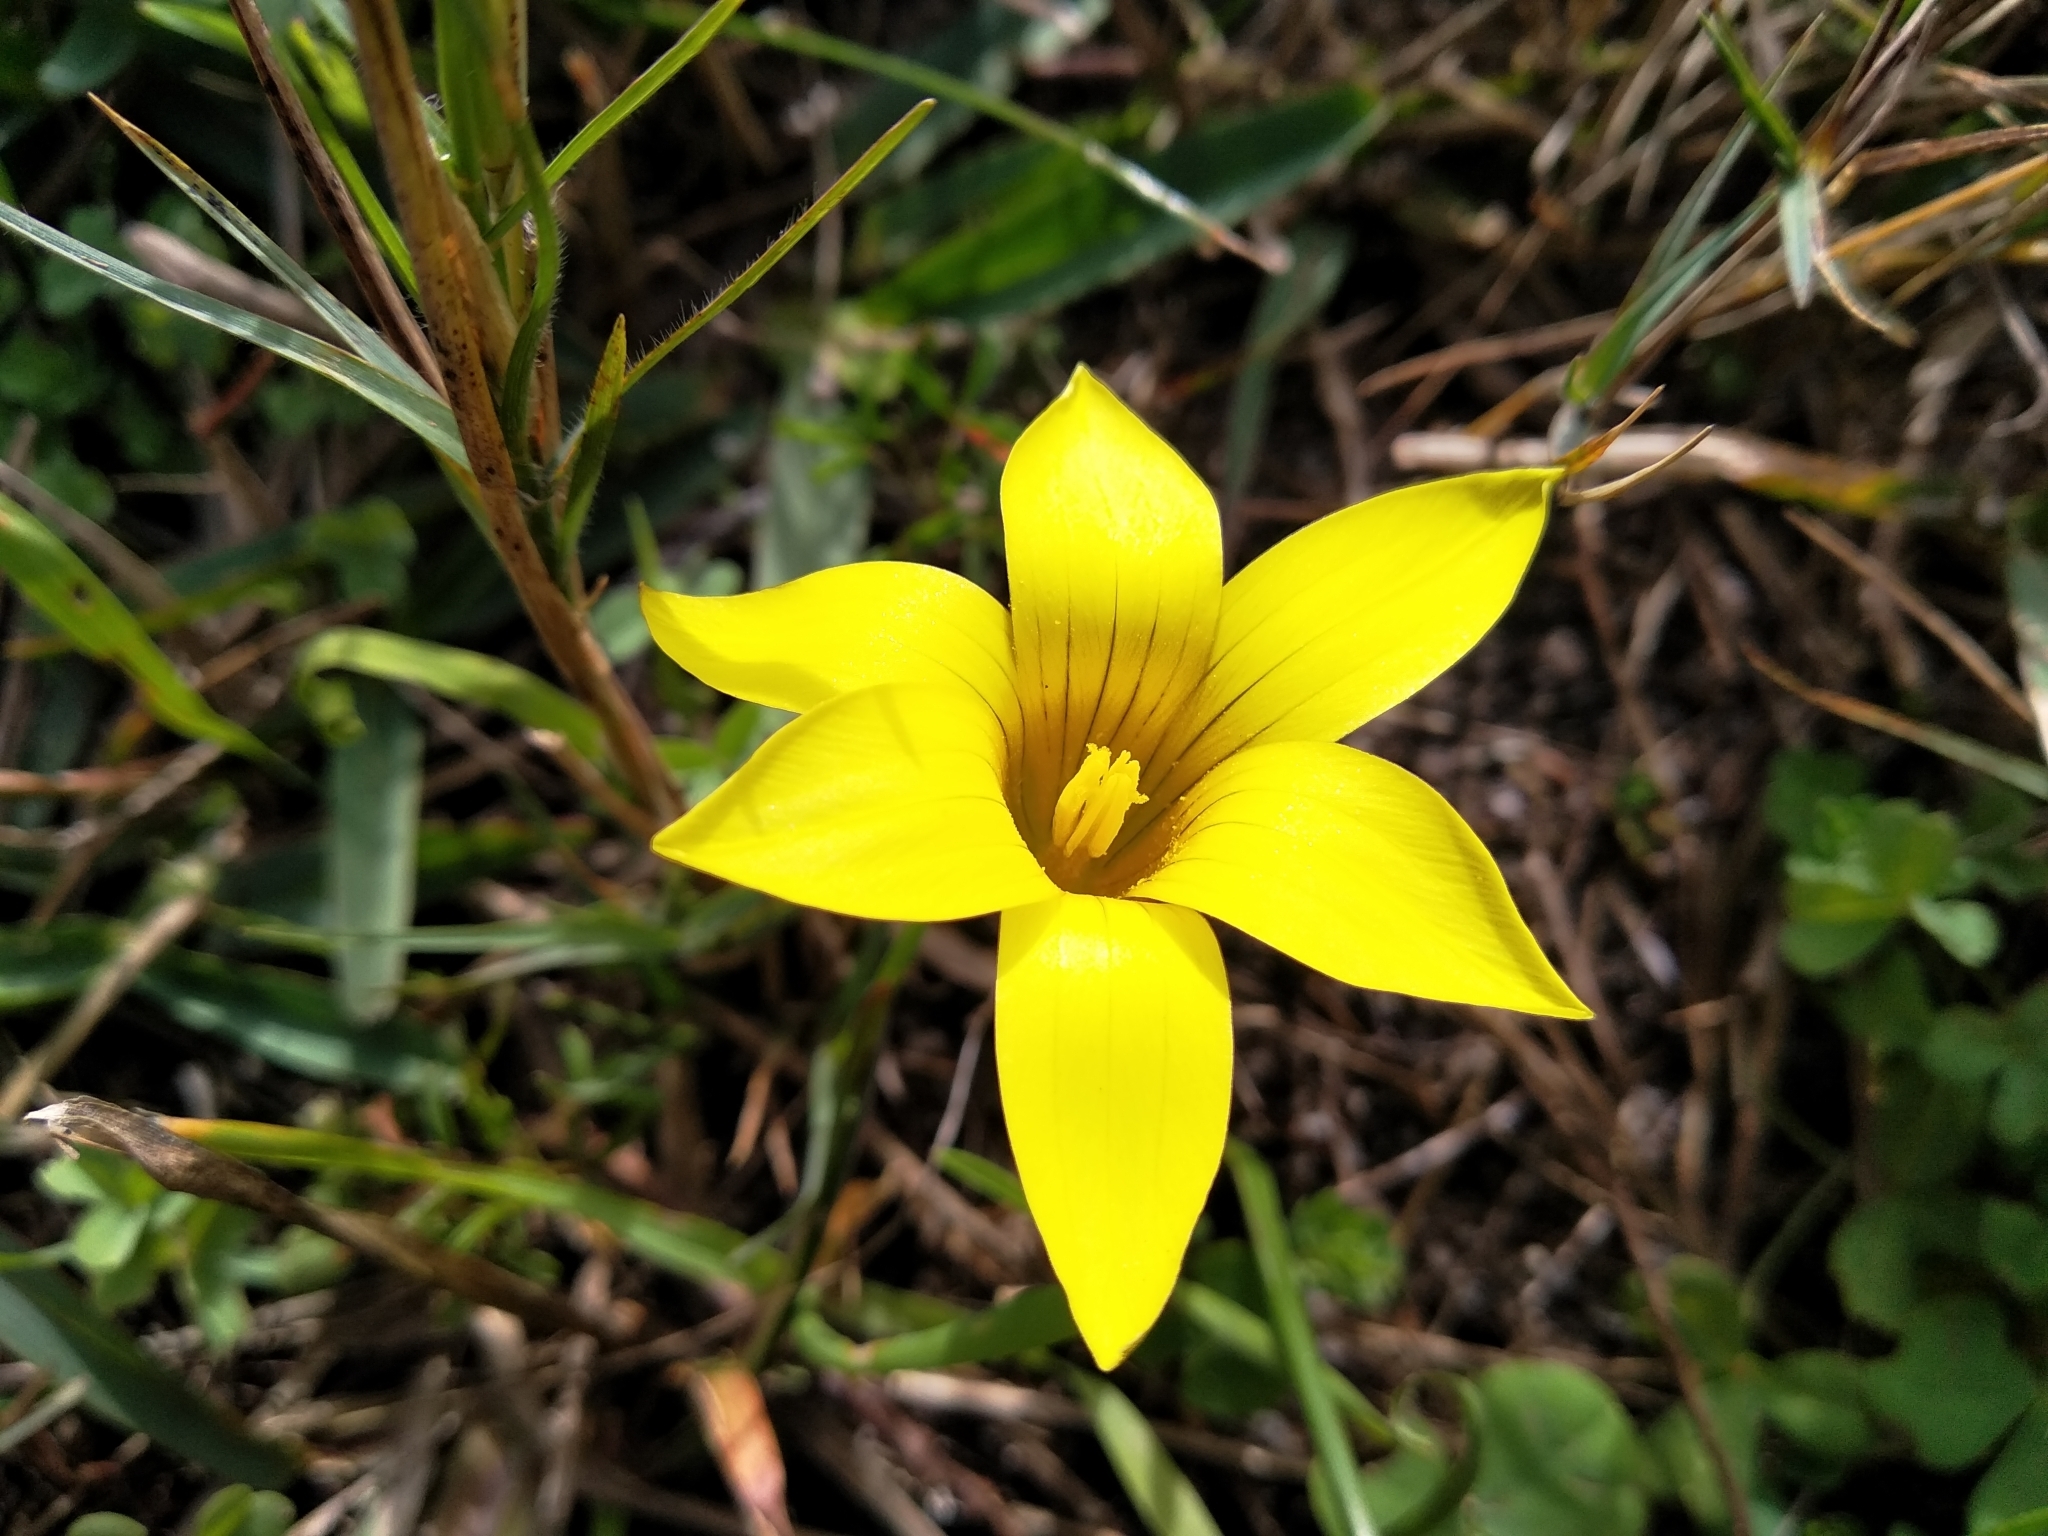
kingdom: Plantae
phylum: Tracheophyta
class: Liliopsida
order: Asparagales
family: Iridaceae
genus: Romulea
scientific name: Romulea flava
